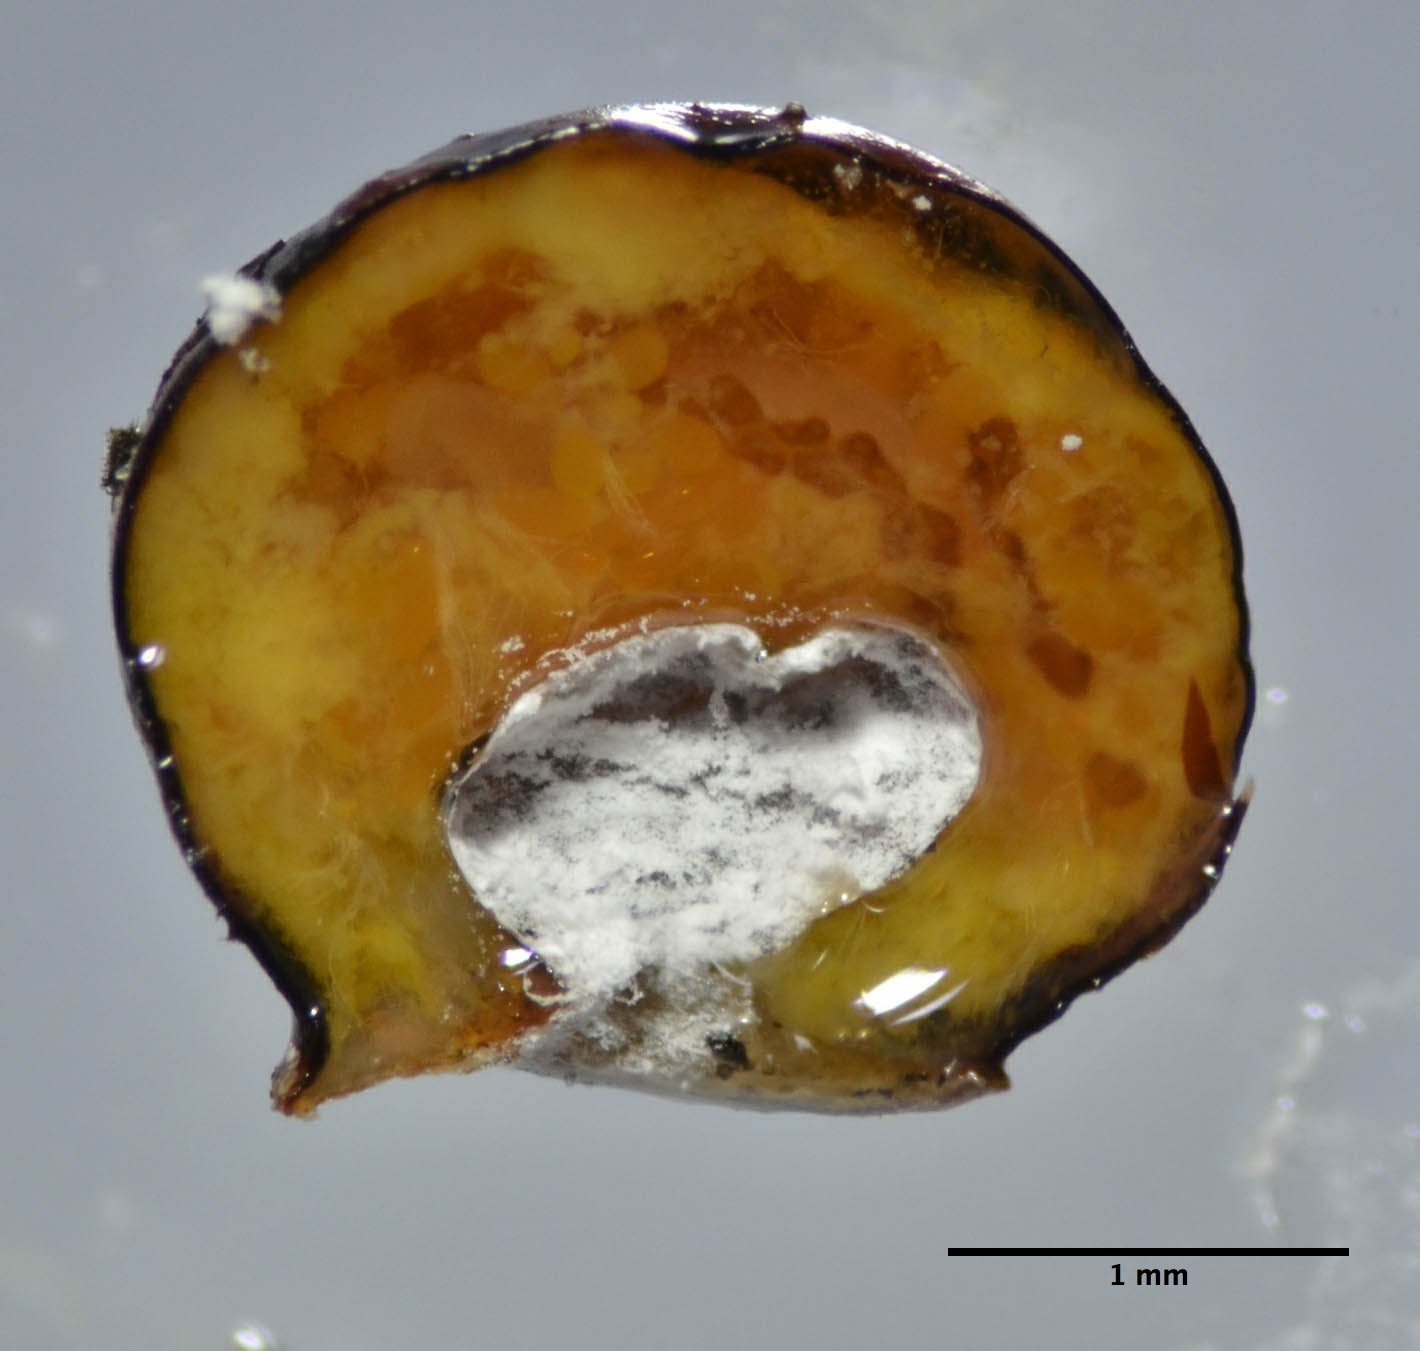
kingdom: Animalia
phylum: Arthropoda
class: Insecta
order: Hemiptera
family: Coccidae
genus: Eulecanium
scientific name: Eulecanium kunoense
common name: Kuno scale
